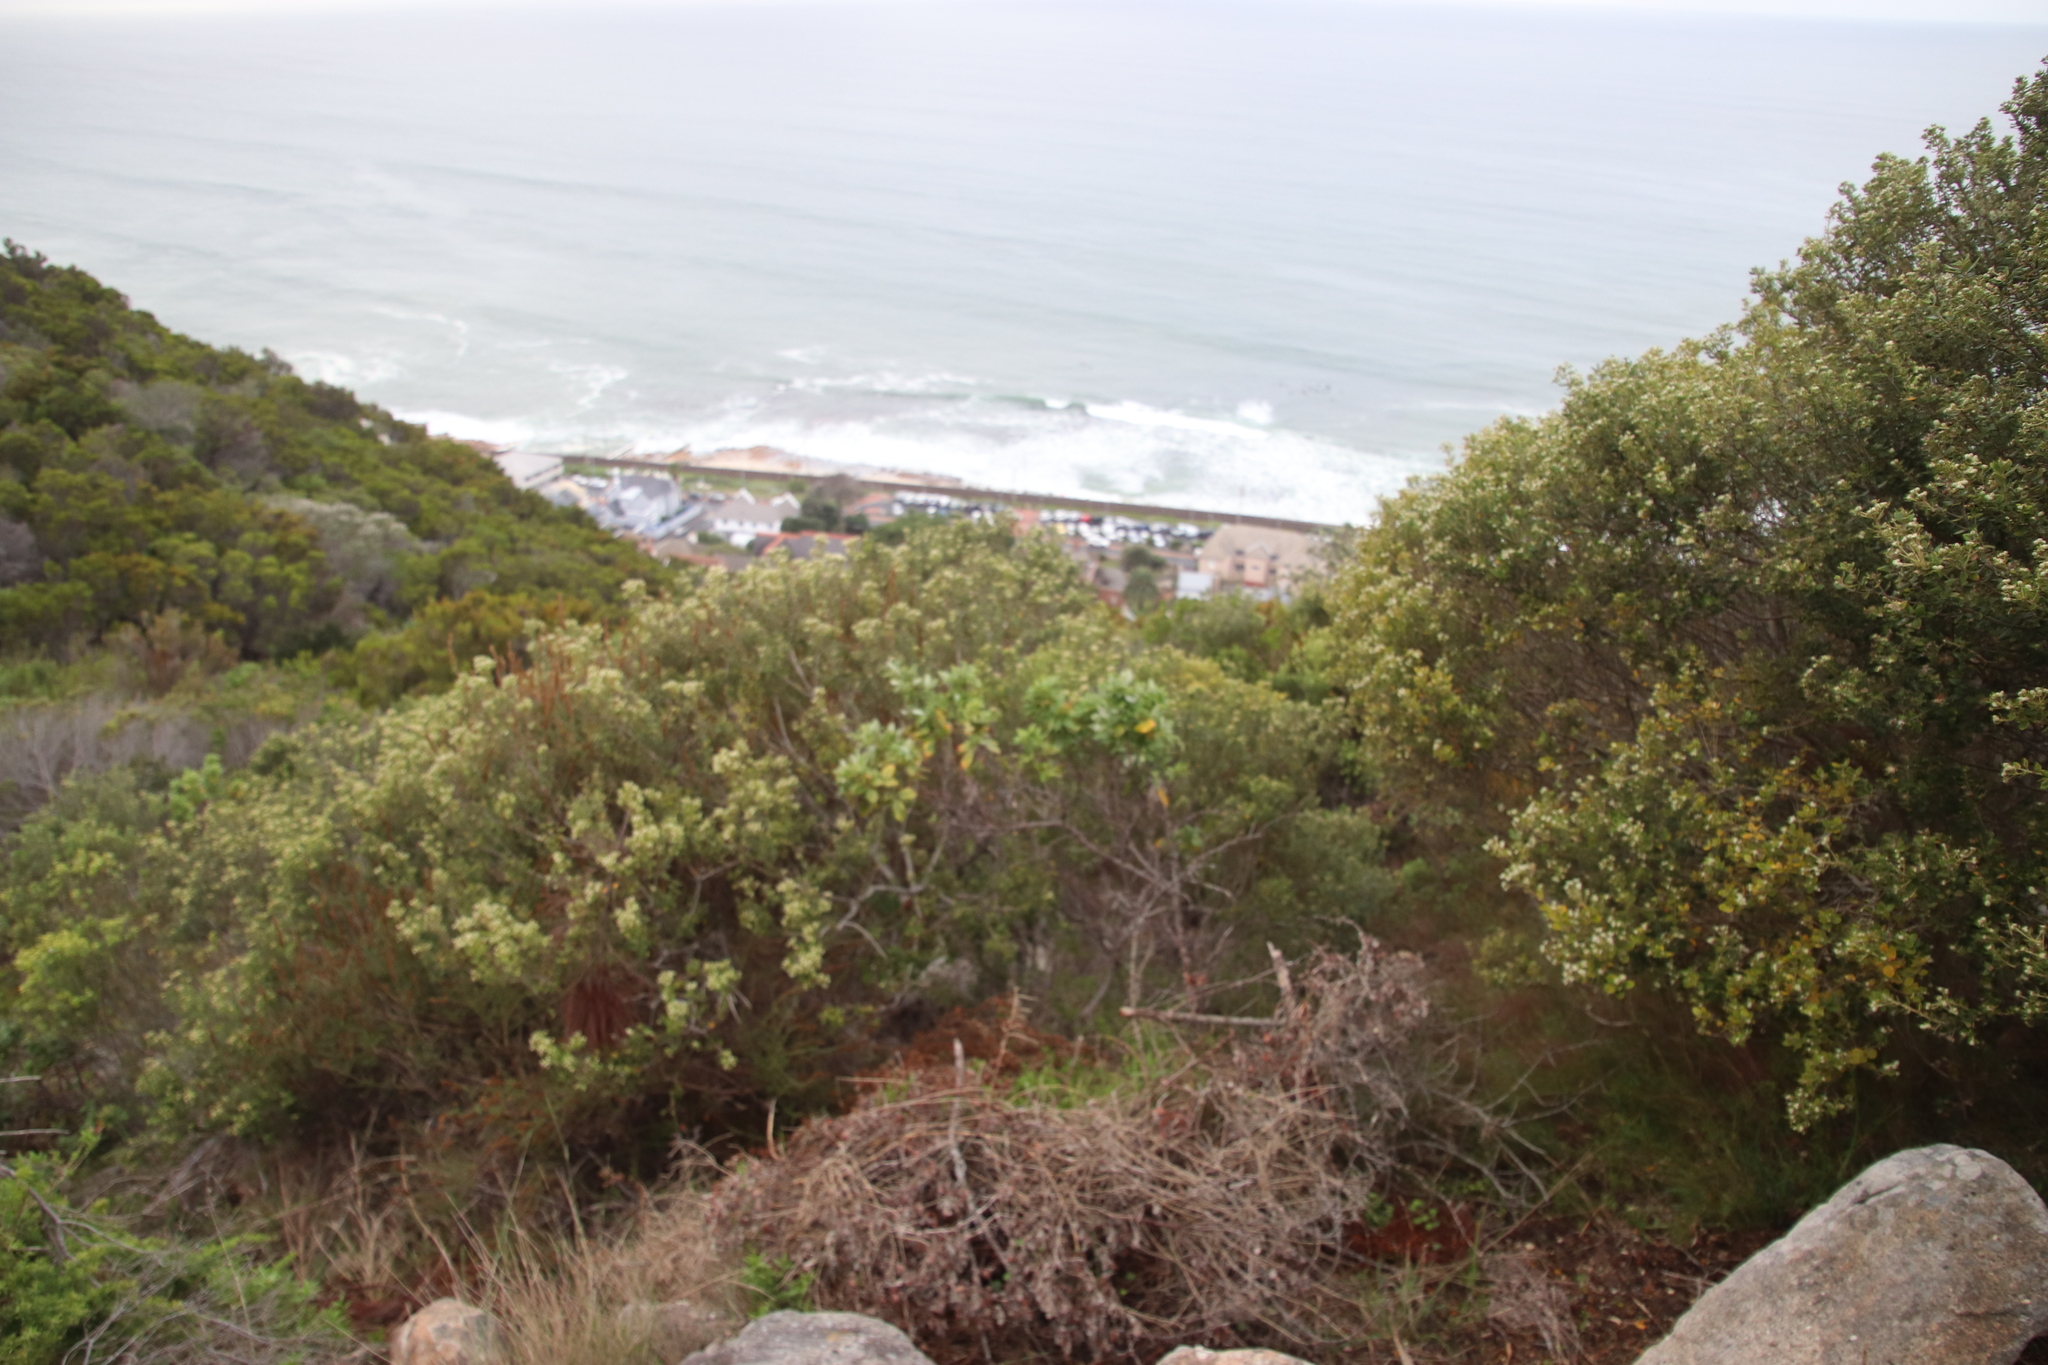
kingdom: Plantae
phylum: Tracheophyta
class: Magnoliopsida
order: Rosales
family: Rhamnaceae
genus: Phylica
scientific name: Phylica buxifolia
